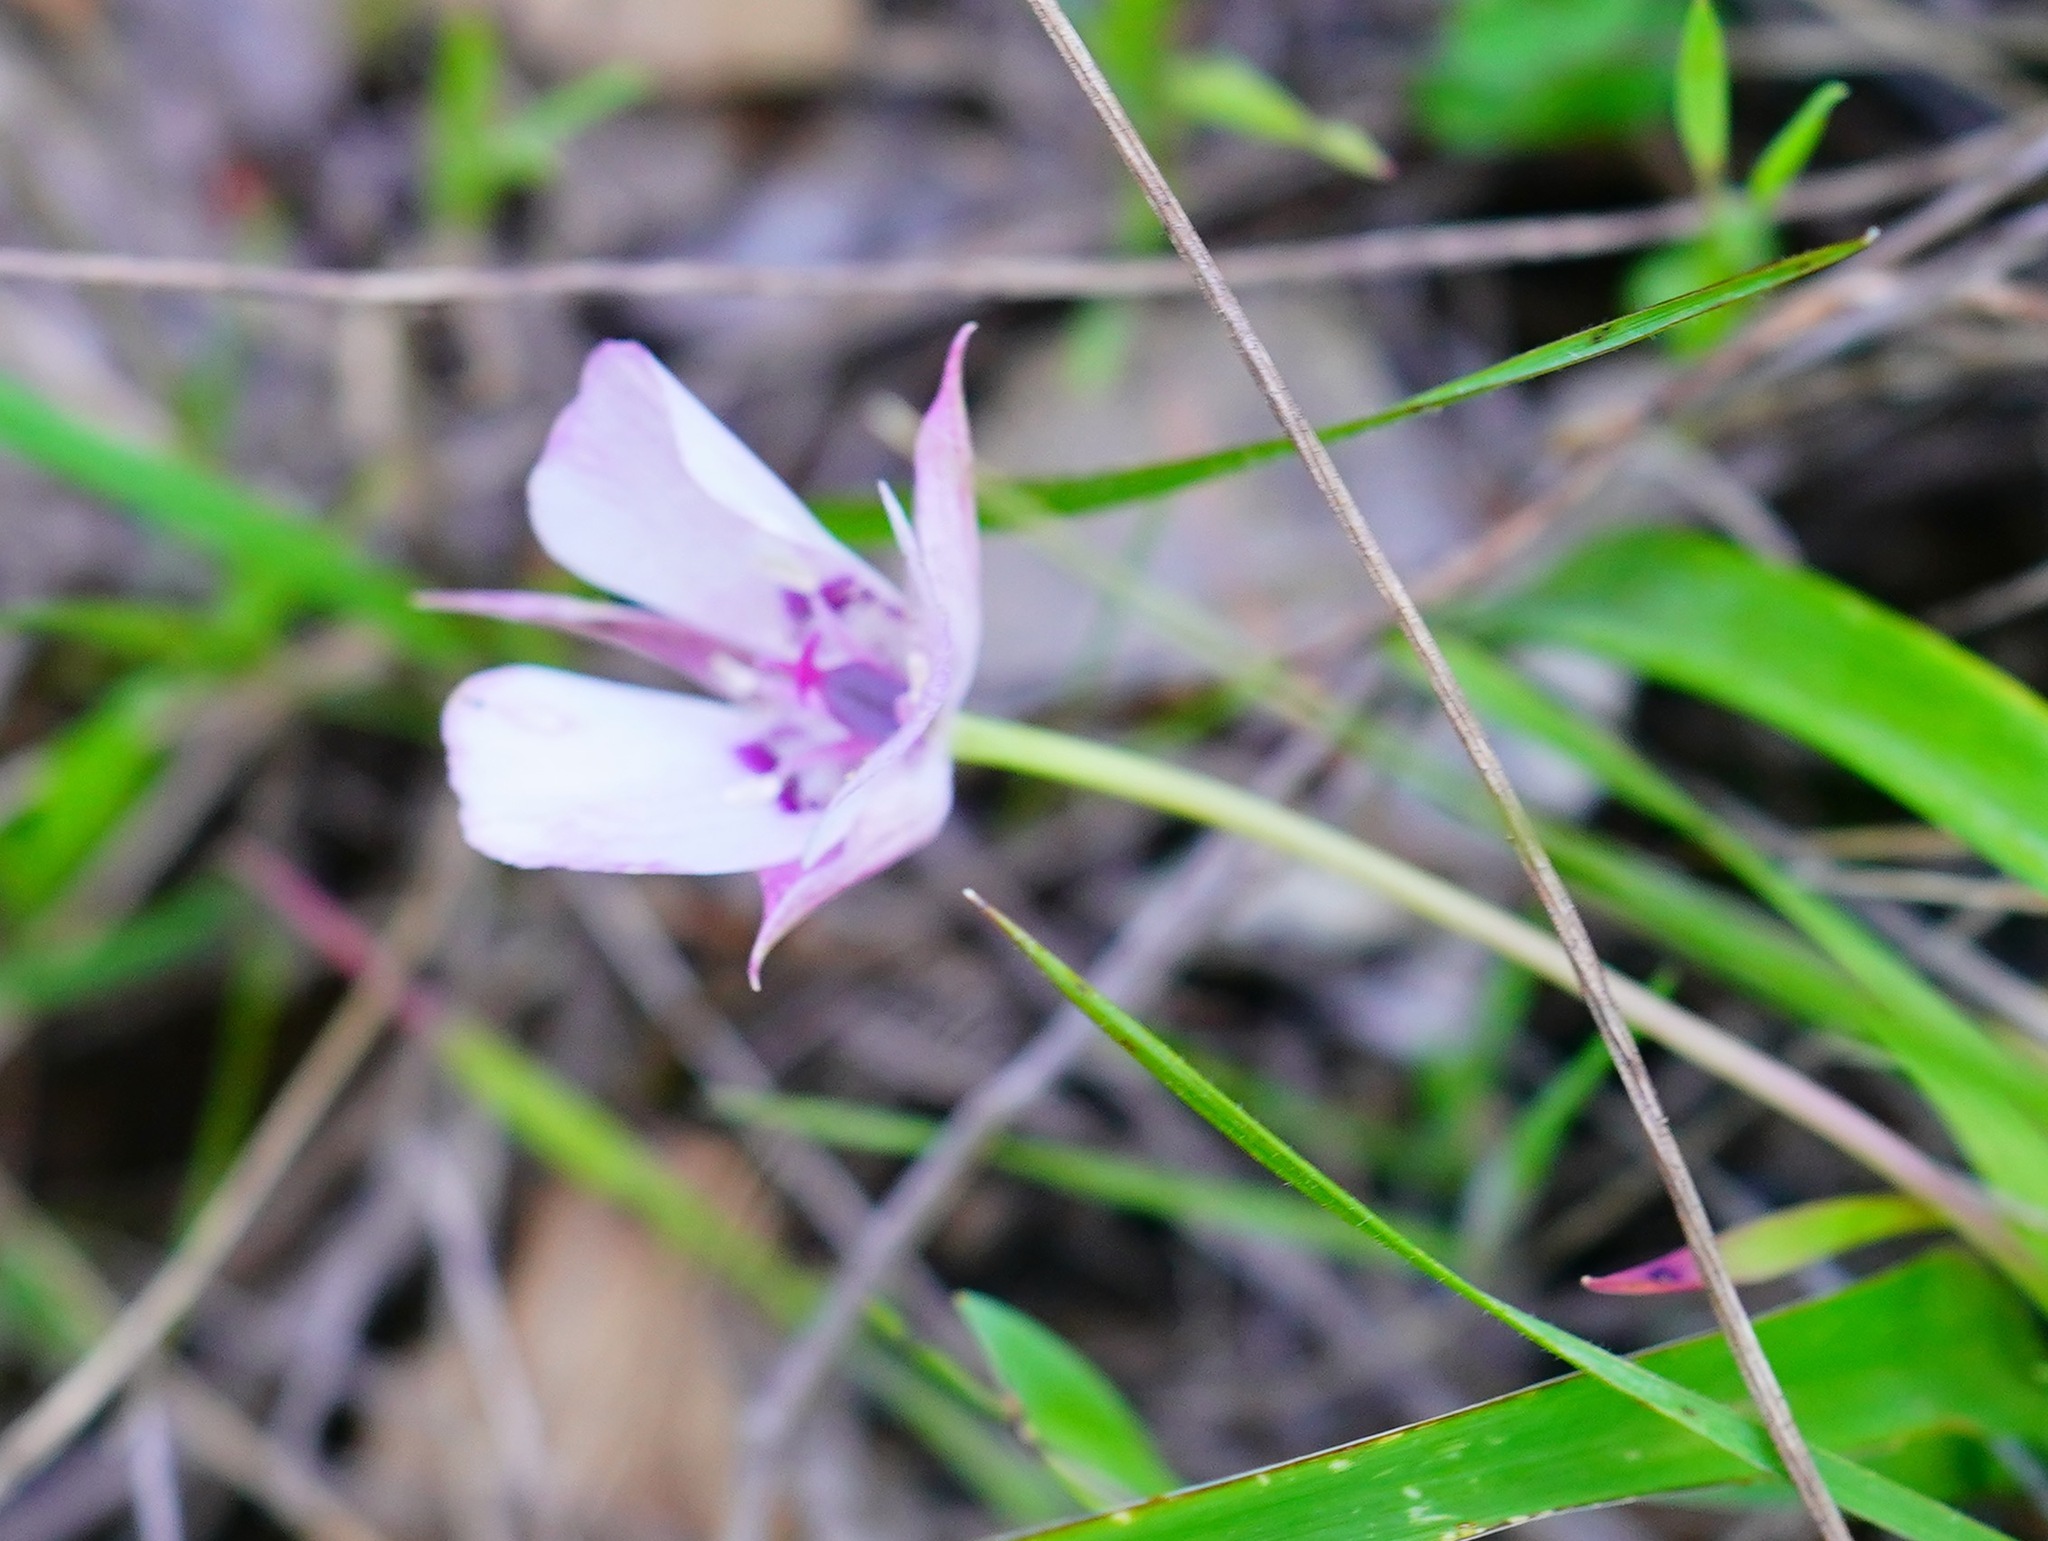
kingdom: Plantae
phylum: Tracheophyta
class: Liliopsida
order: Liliales
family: Liliaceae
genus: Calochortus
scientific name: Calochortus umbellatus
